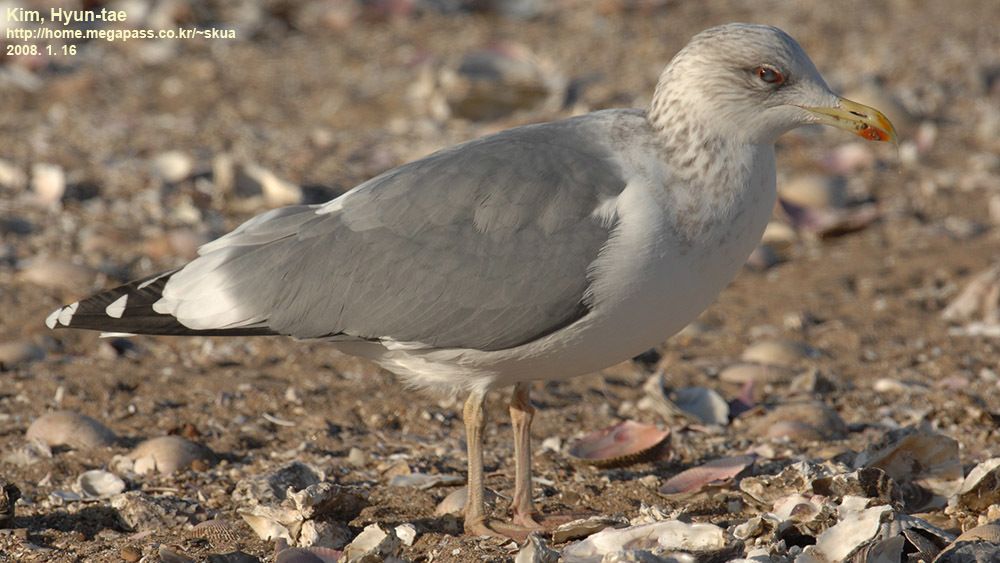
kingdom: Animalia
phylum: Chordata
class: Aves
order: Charadriiformes
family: Laridae
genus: Larus
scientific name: Larus fuscus
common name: Lesser black-backed gull
